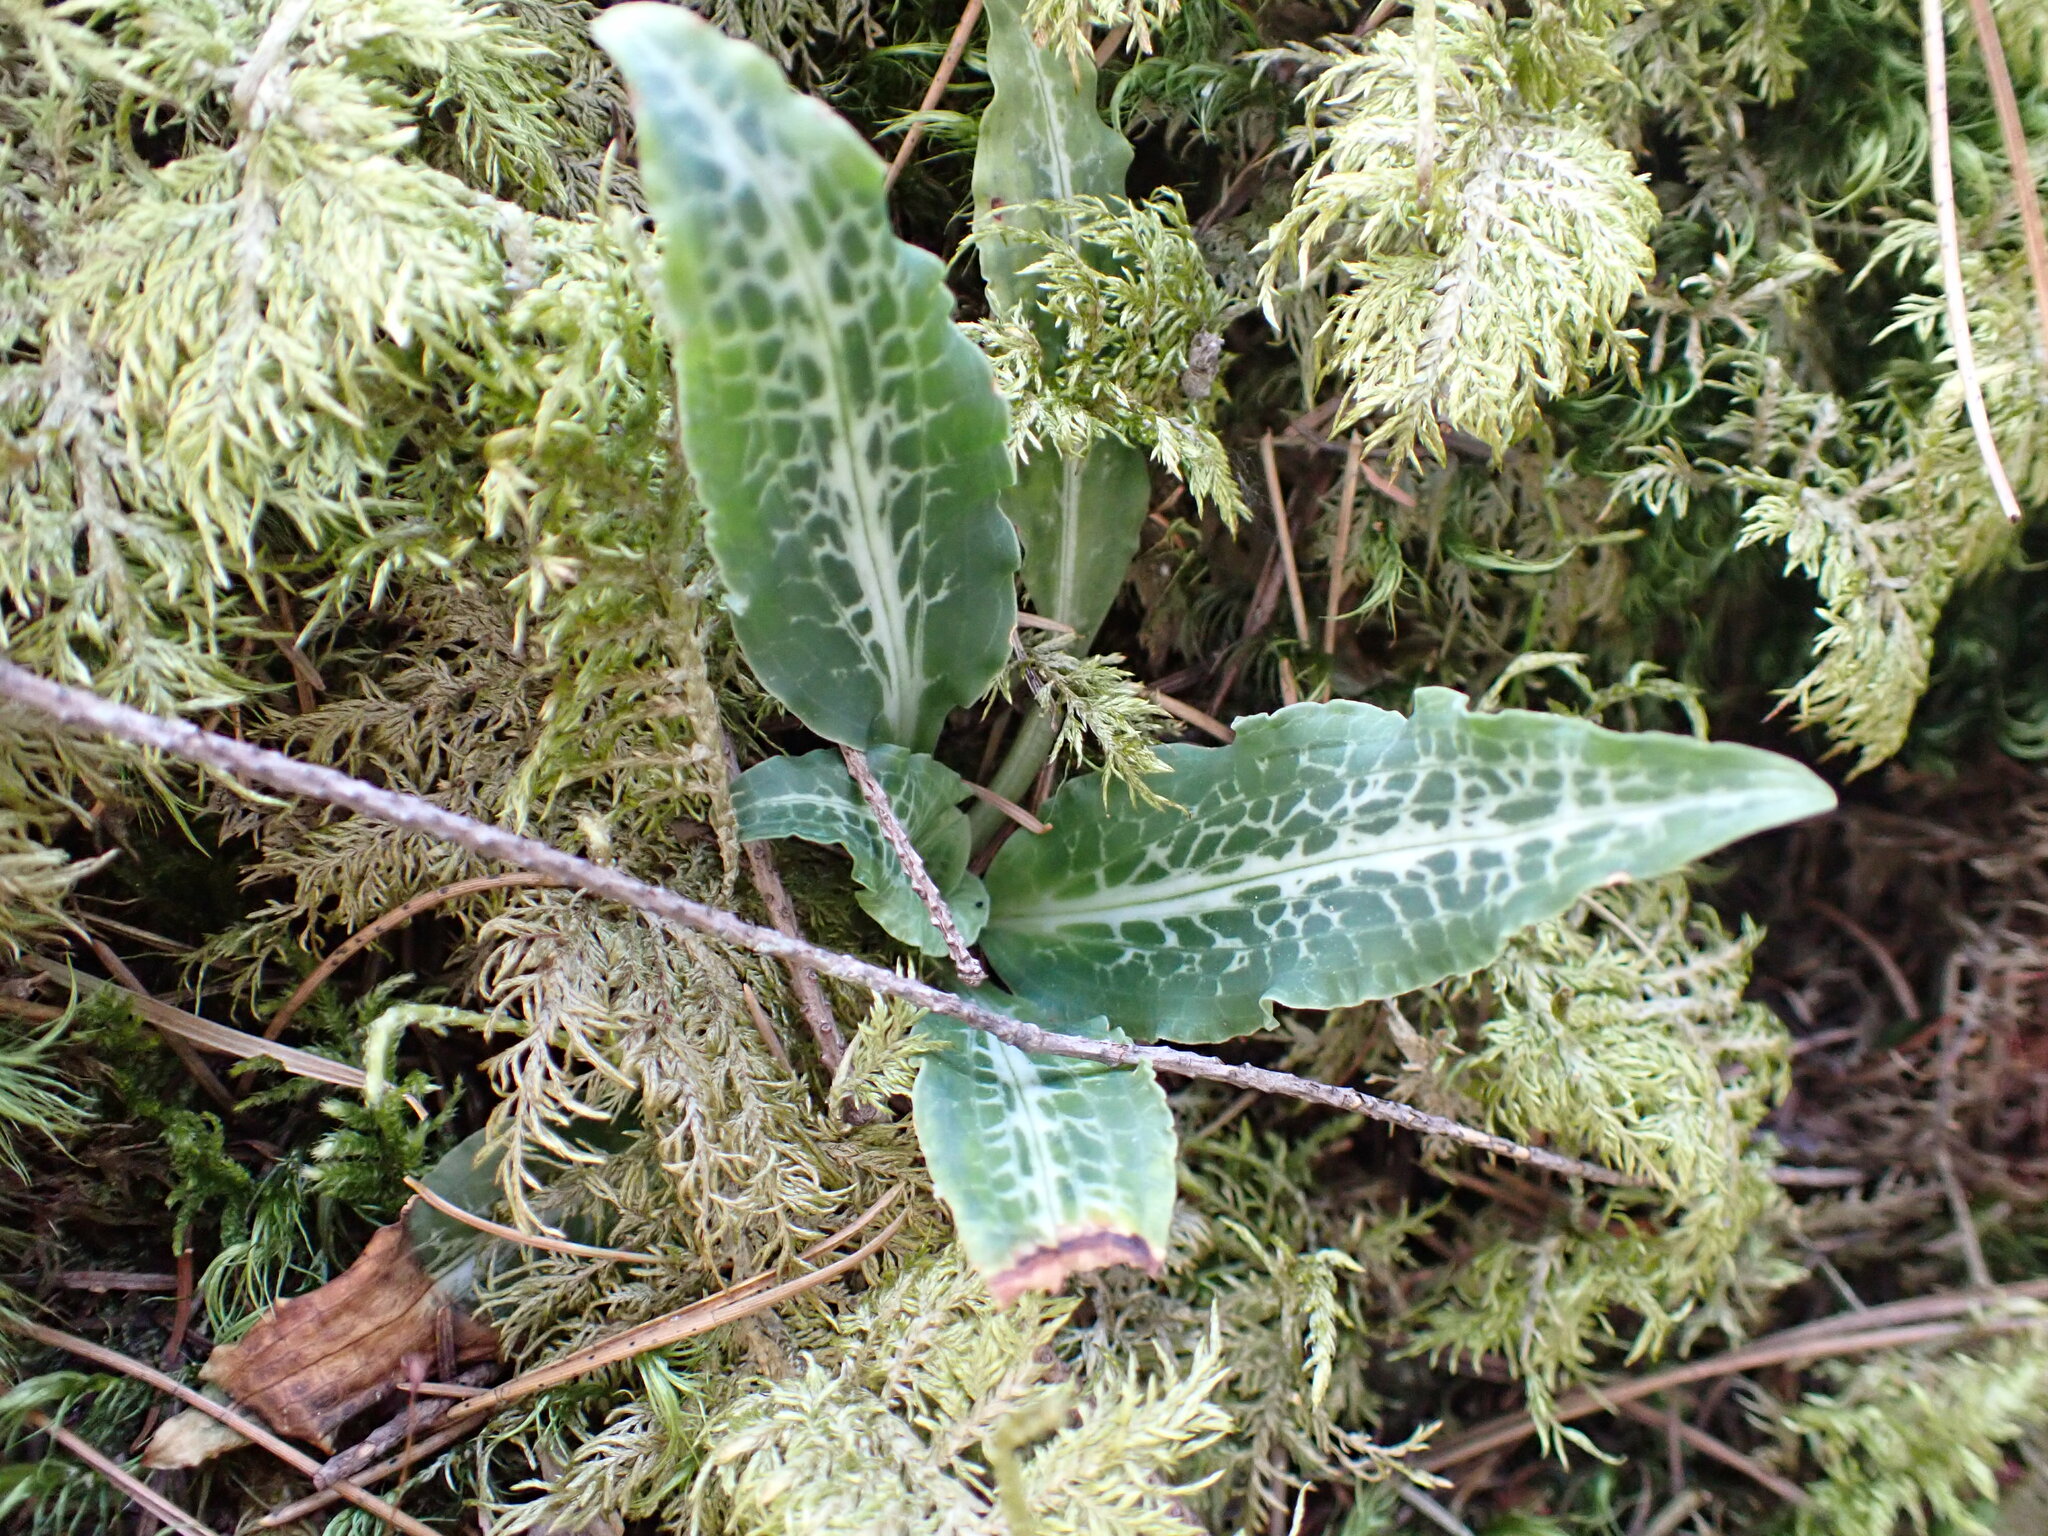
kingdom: Plantae
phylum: Tracheophyta
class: Liliopsida
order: Asparagales
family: Orchidaceae
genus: Goodyera
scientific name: Goodyera oblongifolia
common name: Giant rattlesnake-plantain
